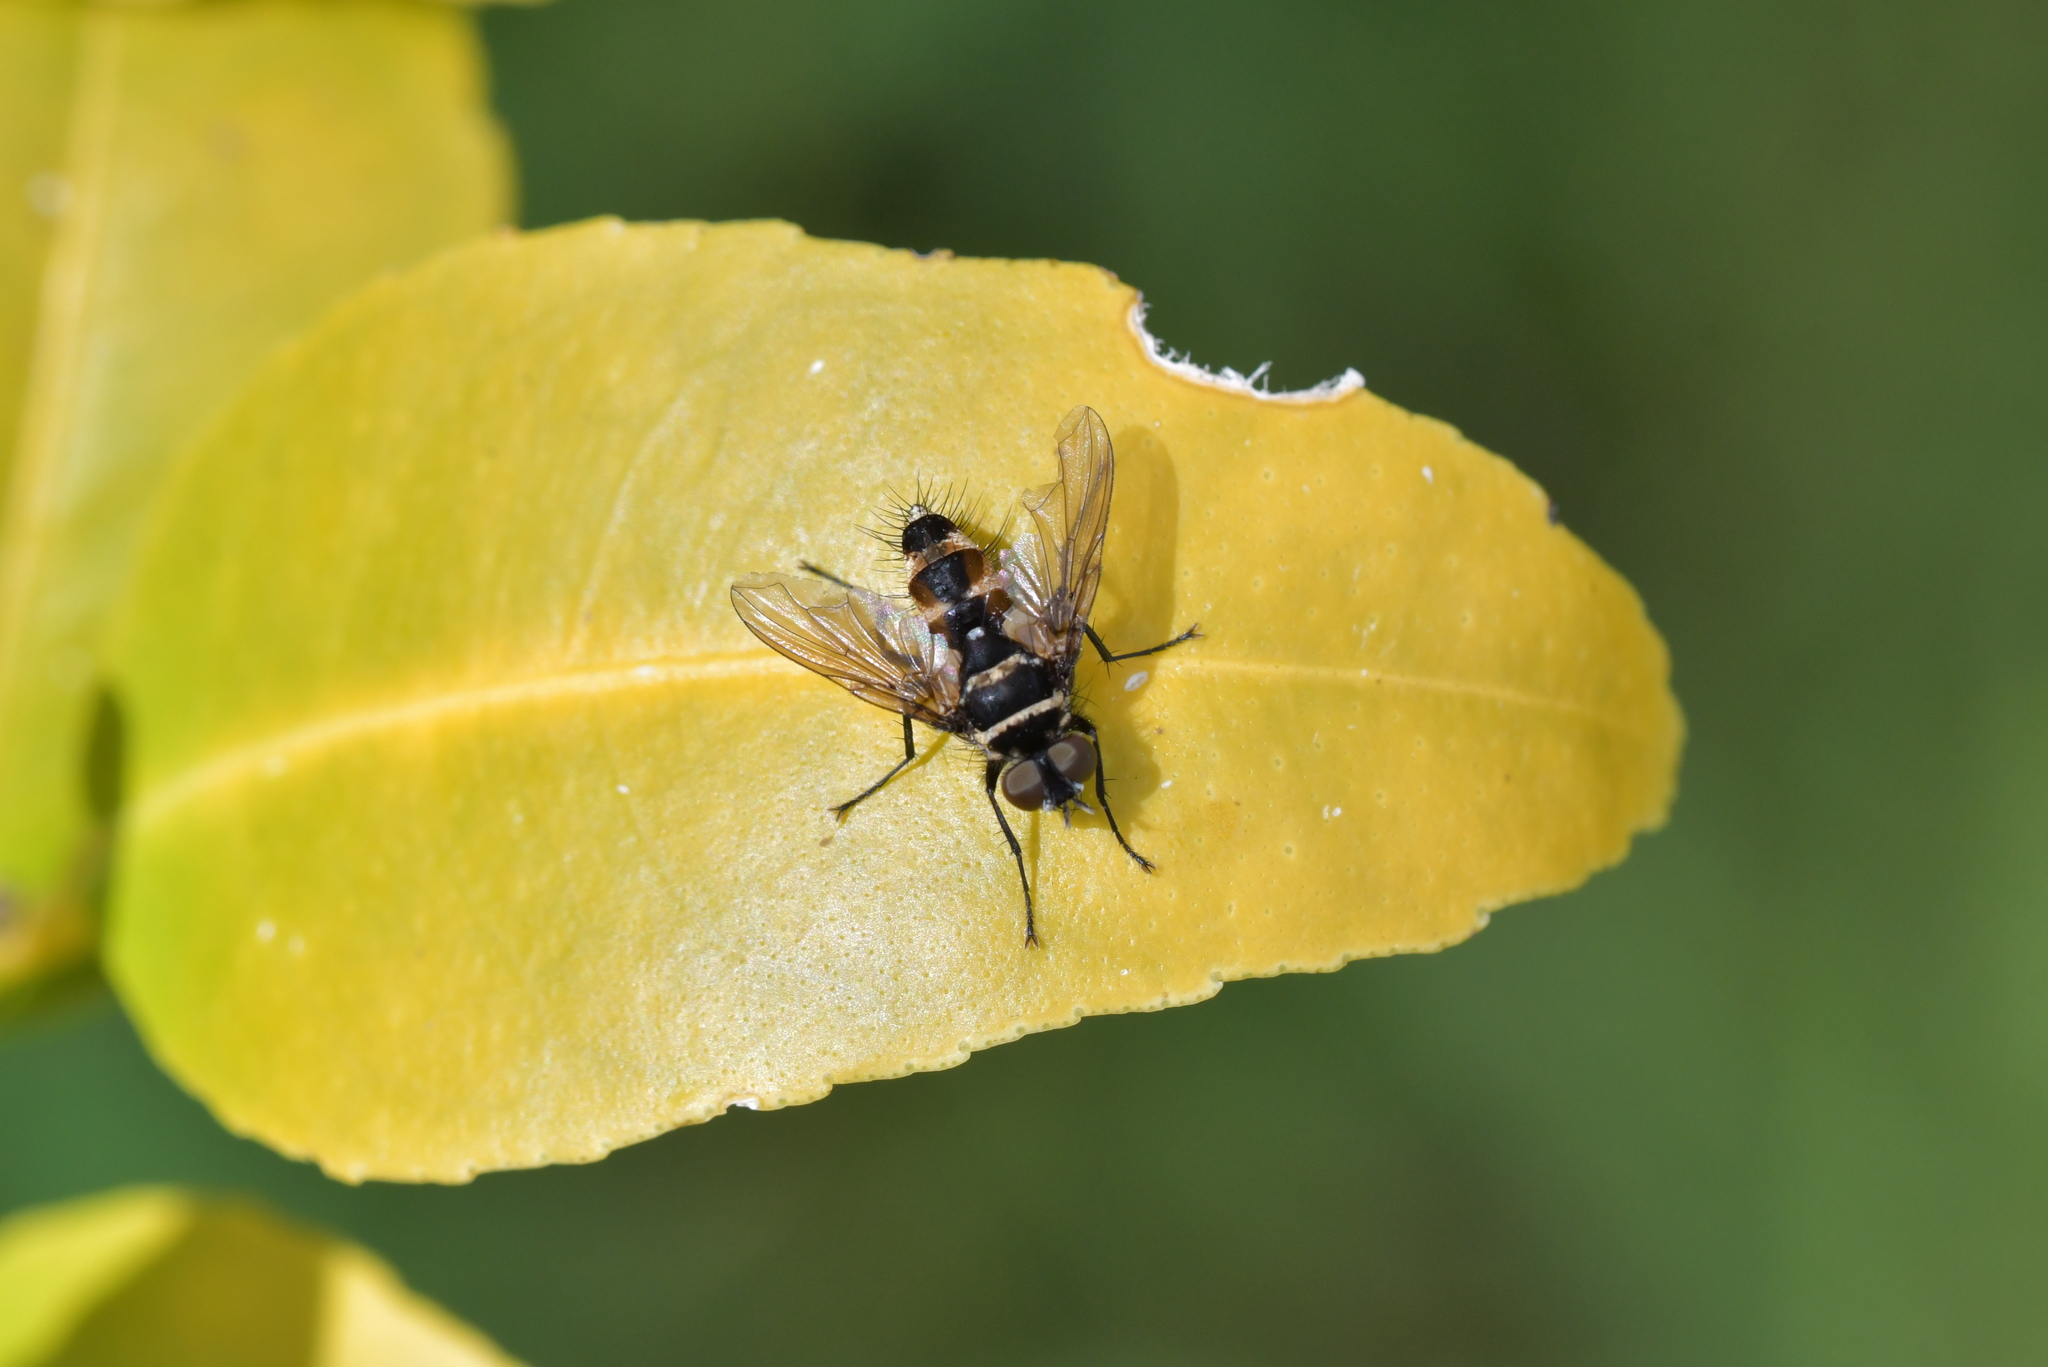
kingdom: Animalia
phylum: Arthropoda
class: Insecta
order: Diptera
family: Tachinidae
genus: Trigonospila
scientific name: Trigonospila brevifacies
